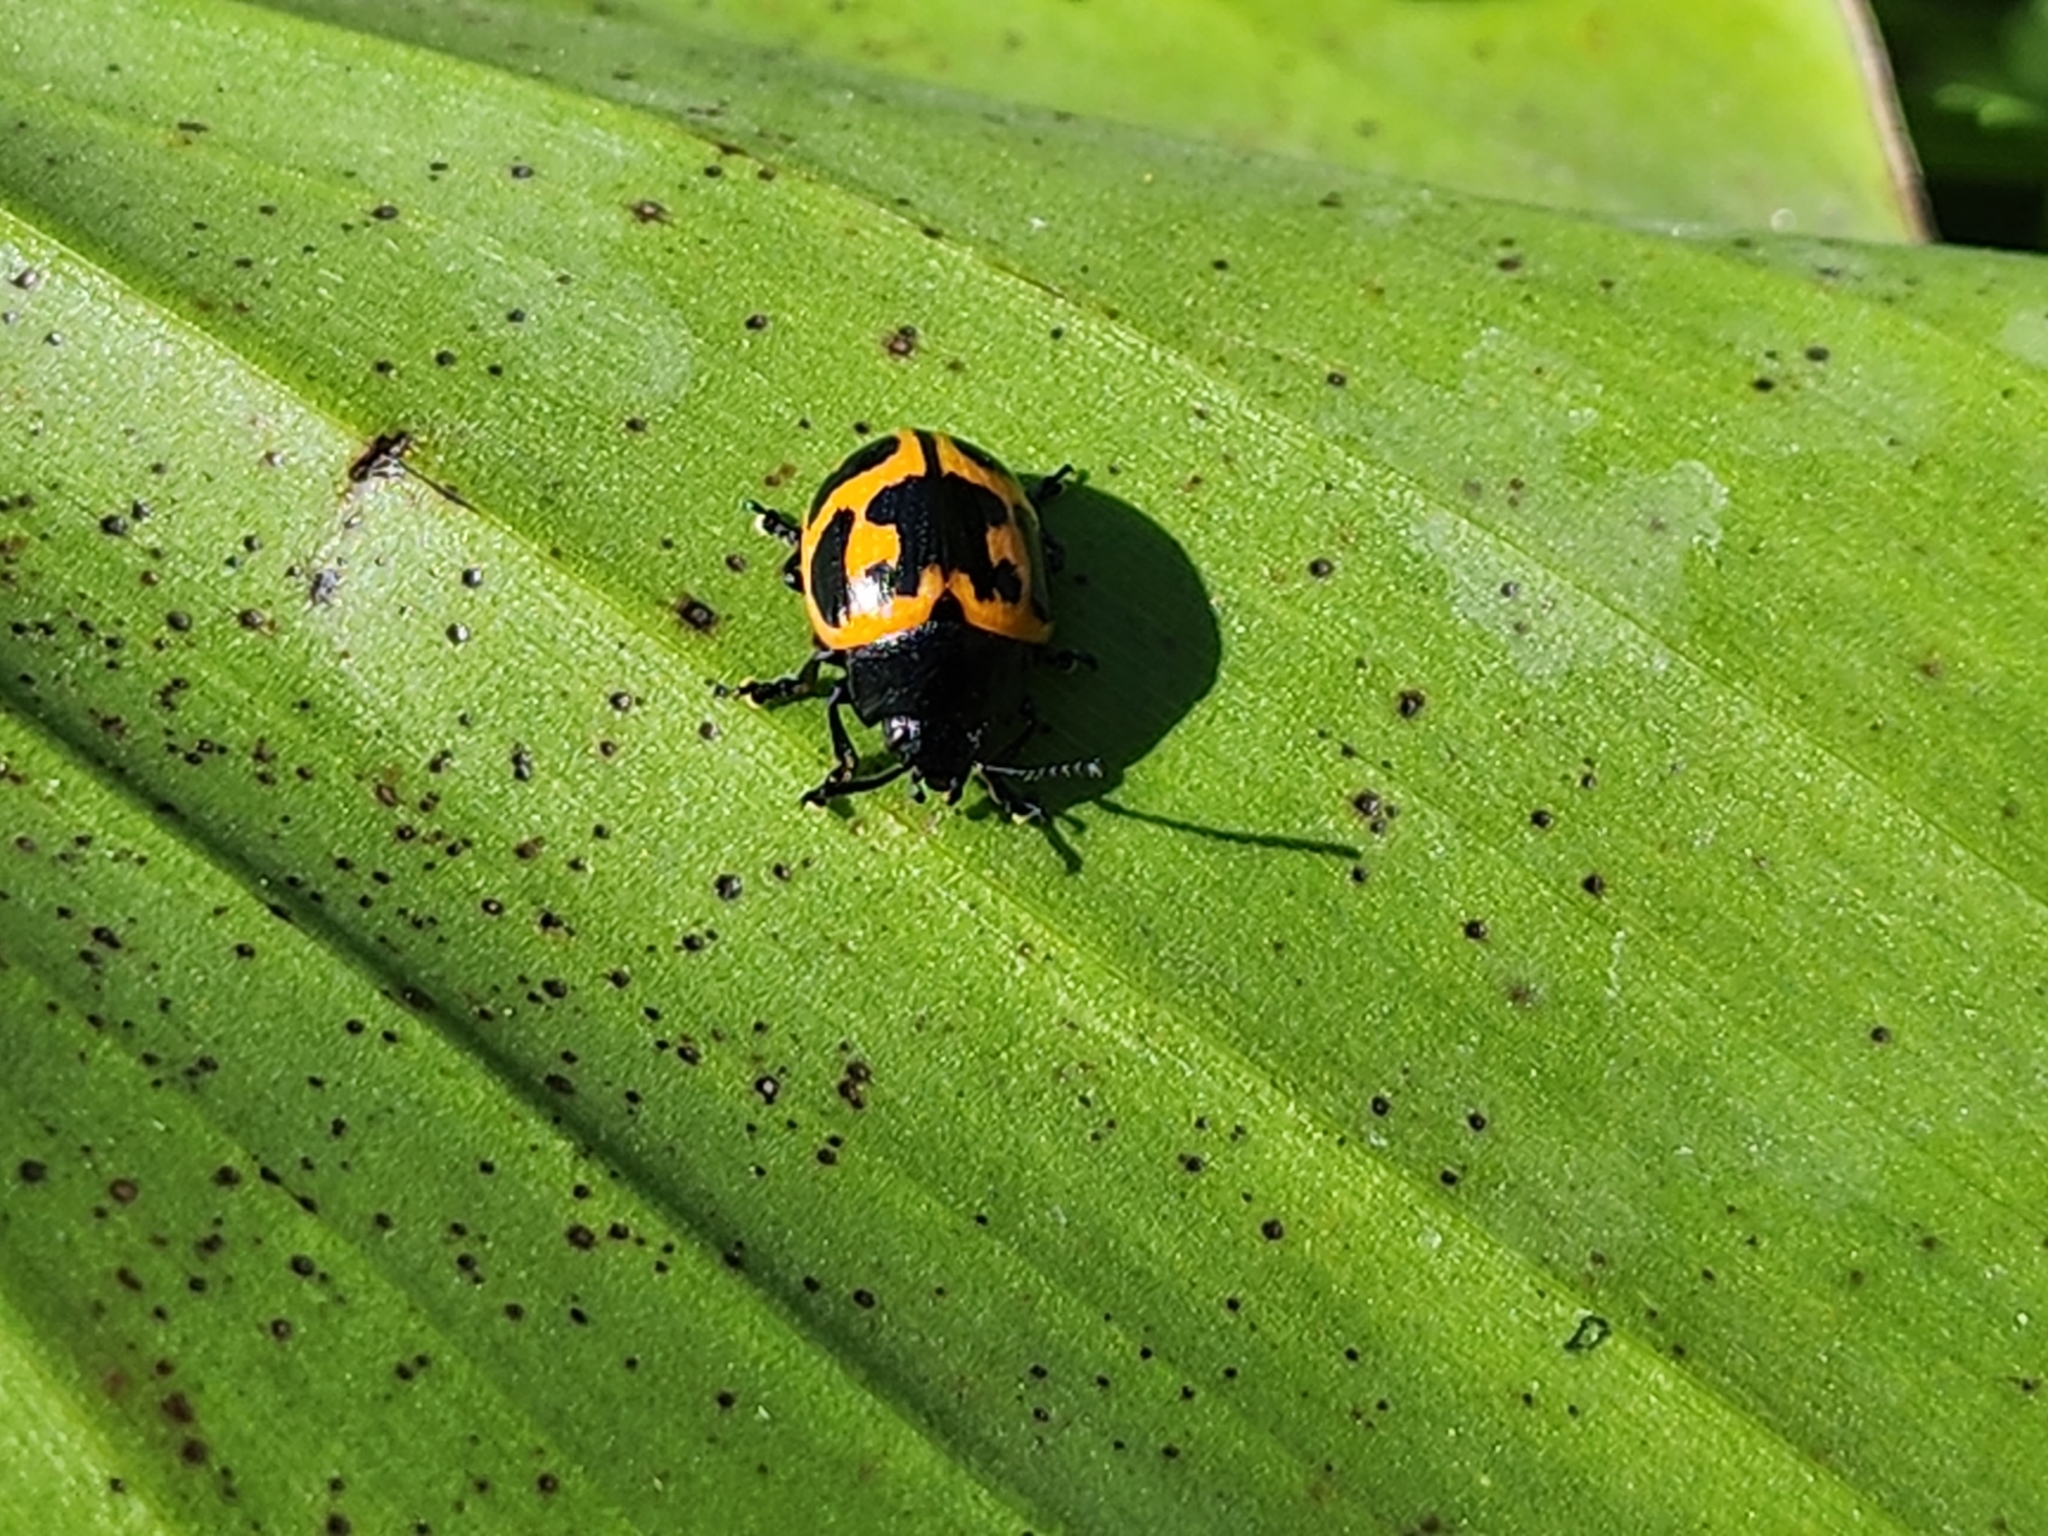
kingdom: Animalia
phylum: Arthropoda
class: Insecta
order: Coleoptera
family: Chrysomelidae
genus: Labidomera
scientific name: Labidomera clivicollis
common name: Swamp milkweed leaf beetle
